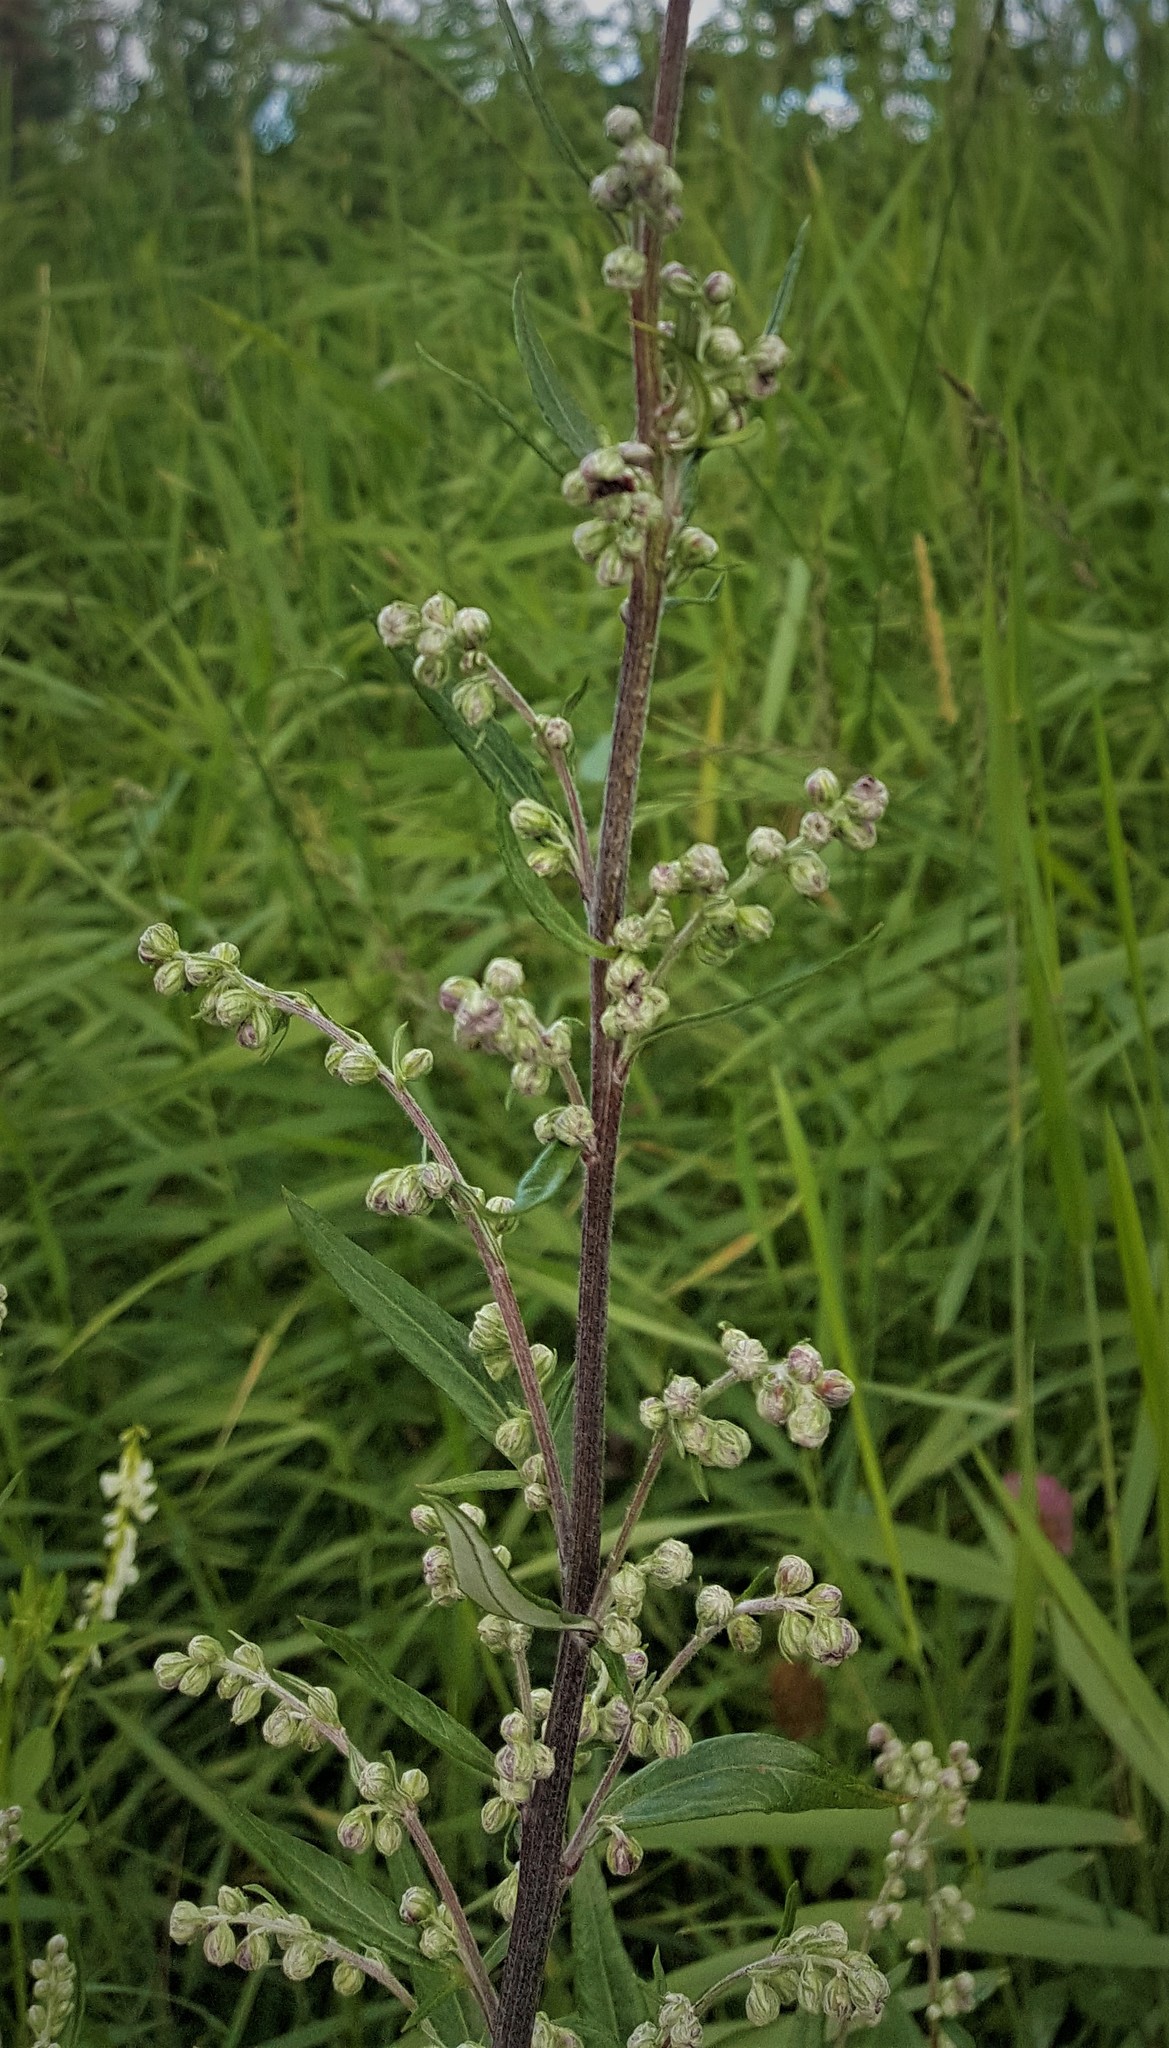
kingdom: Plantae
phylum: Tracheophyta
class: Magnoliopsida
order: Asterales
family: Asteraceae
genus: Artemisia
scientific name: Artemisia vulgaris
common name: Mugwort
